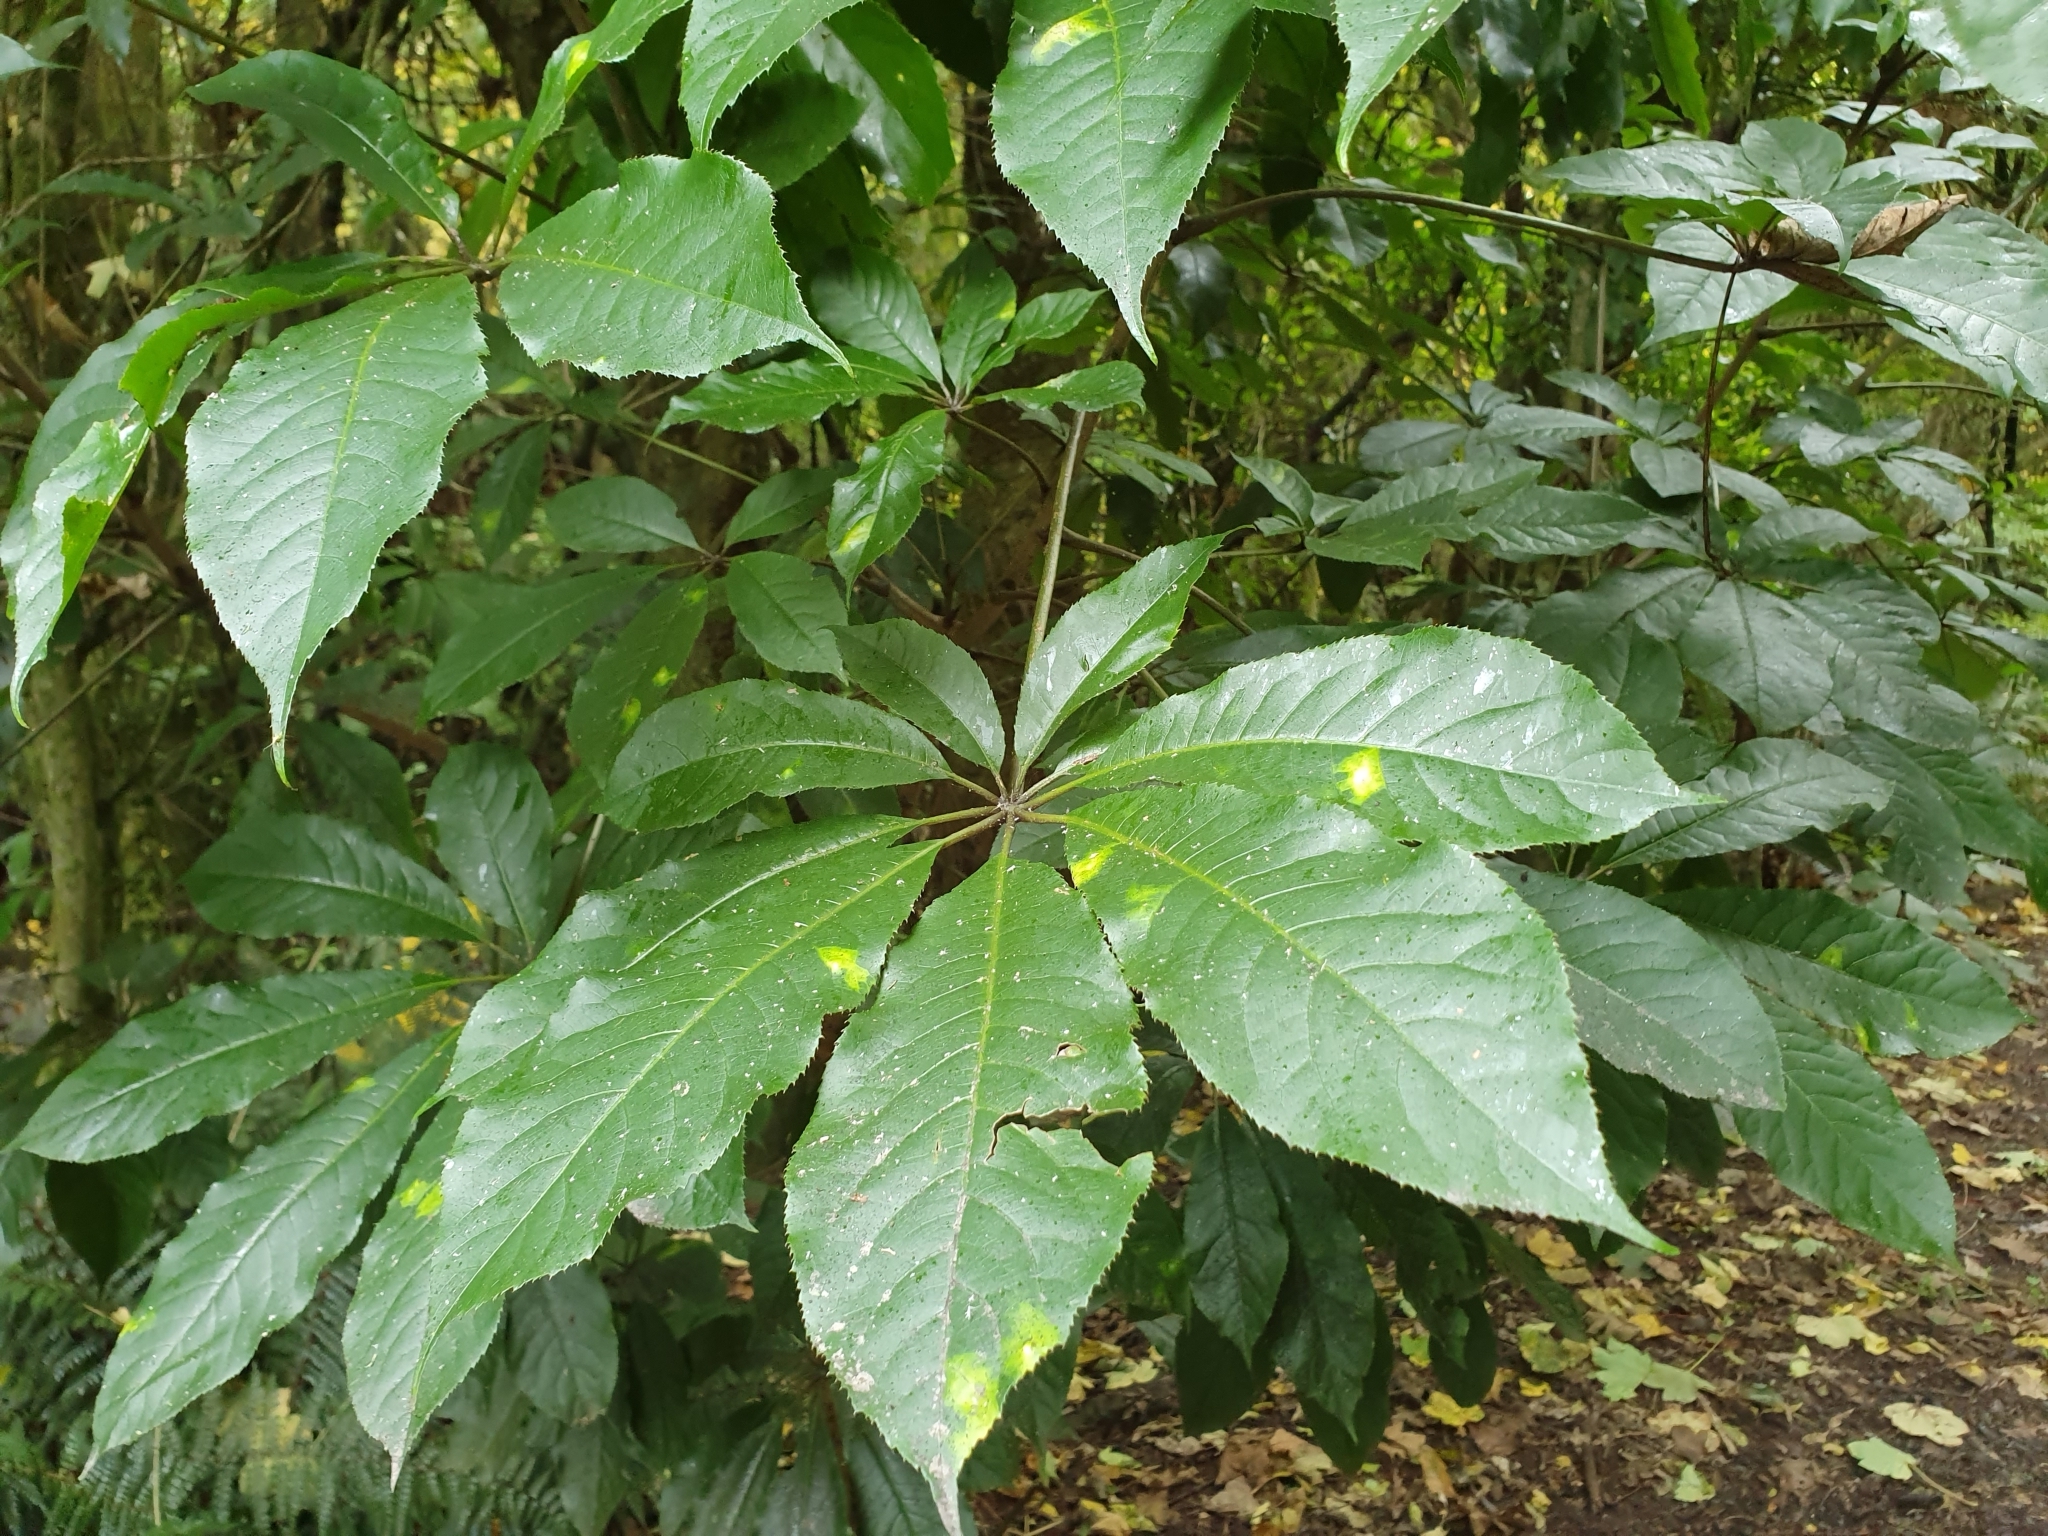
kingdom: Plantae
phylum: Tracheophyta
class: Magnoliopsida
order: Apiales
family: Araliaceae
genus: Schefflera
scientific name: Schefflera digitata
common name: Pate
